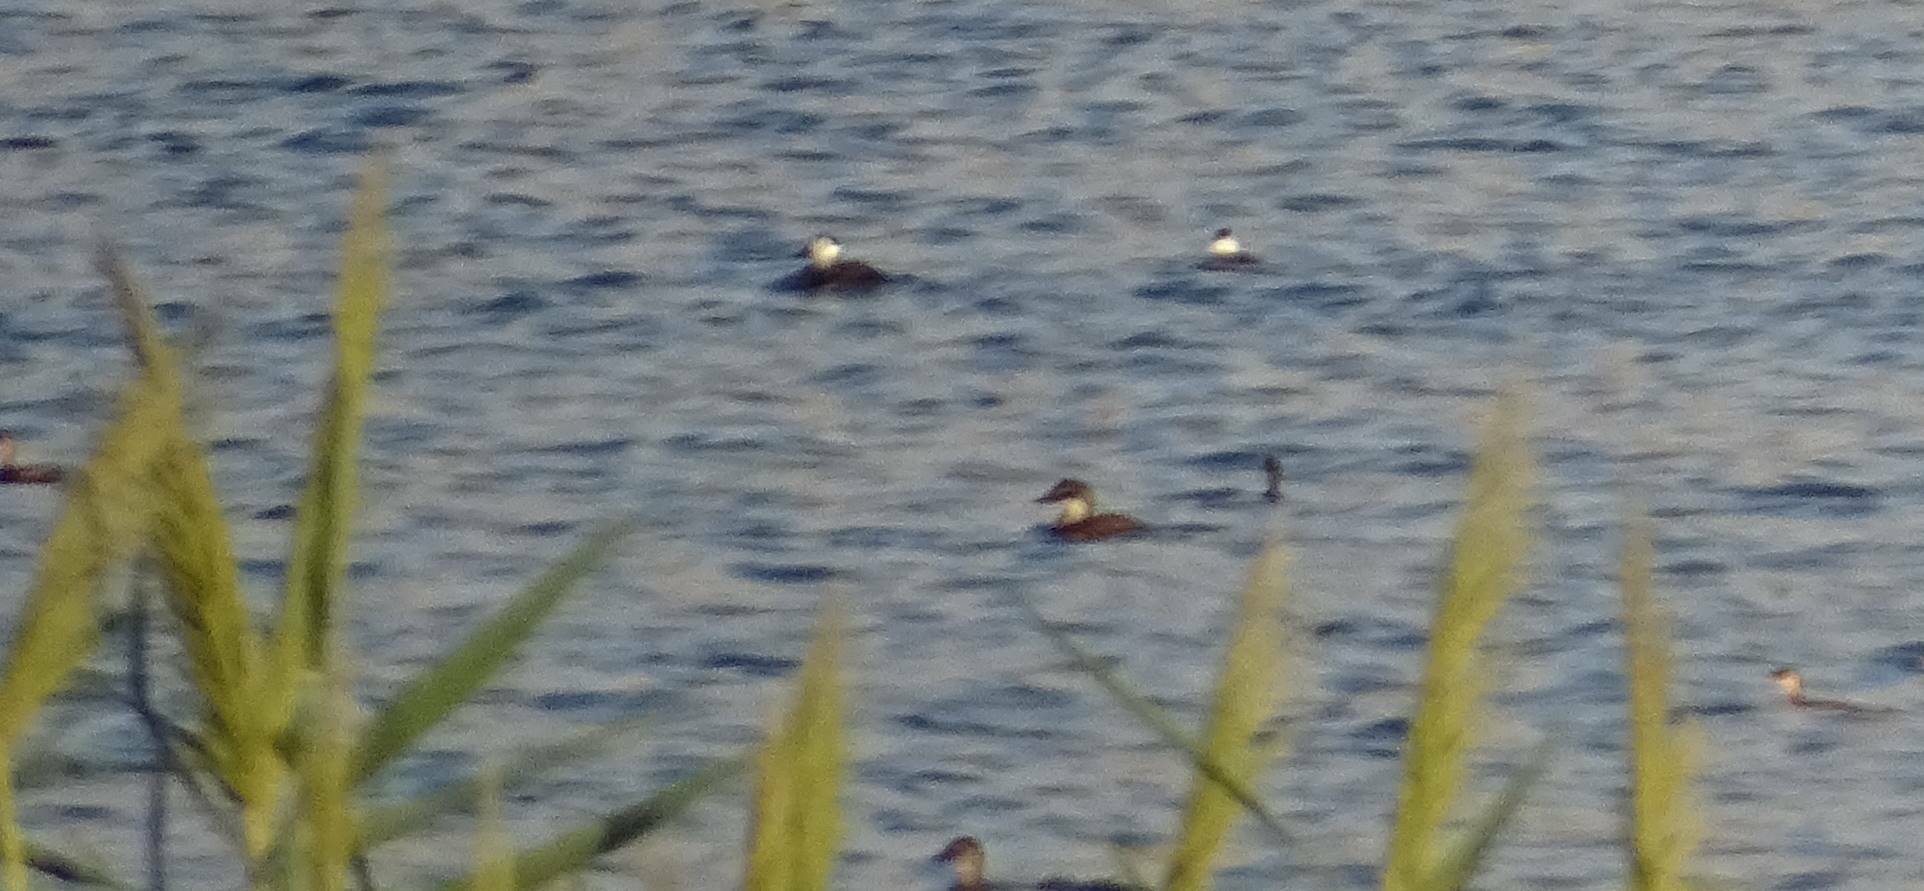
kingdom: Animalia
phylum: Chordata
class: Aves
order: Anseriformes
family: Anatidae
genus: Oxyura
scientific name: Oxyura leucocephala
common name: White-headed duck
